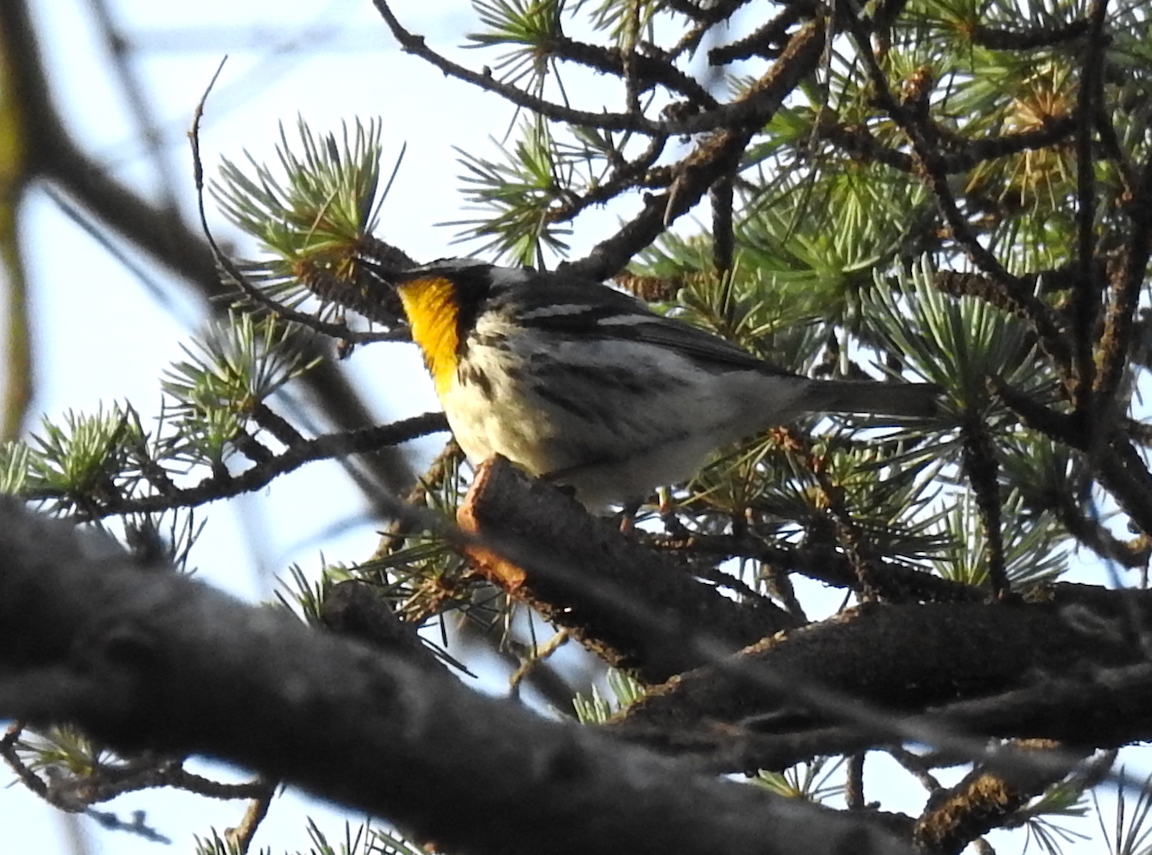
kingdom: Animalia
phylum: Chordata
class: Aves
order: Passeriformes
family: Parulidae
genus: Setophaga
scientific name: Setophaga dominica
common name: Yellow-throated warbler
